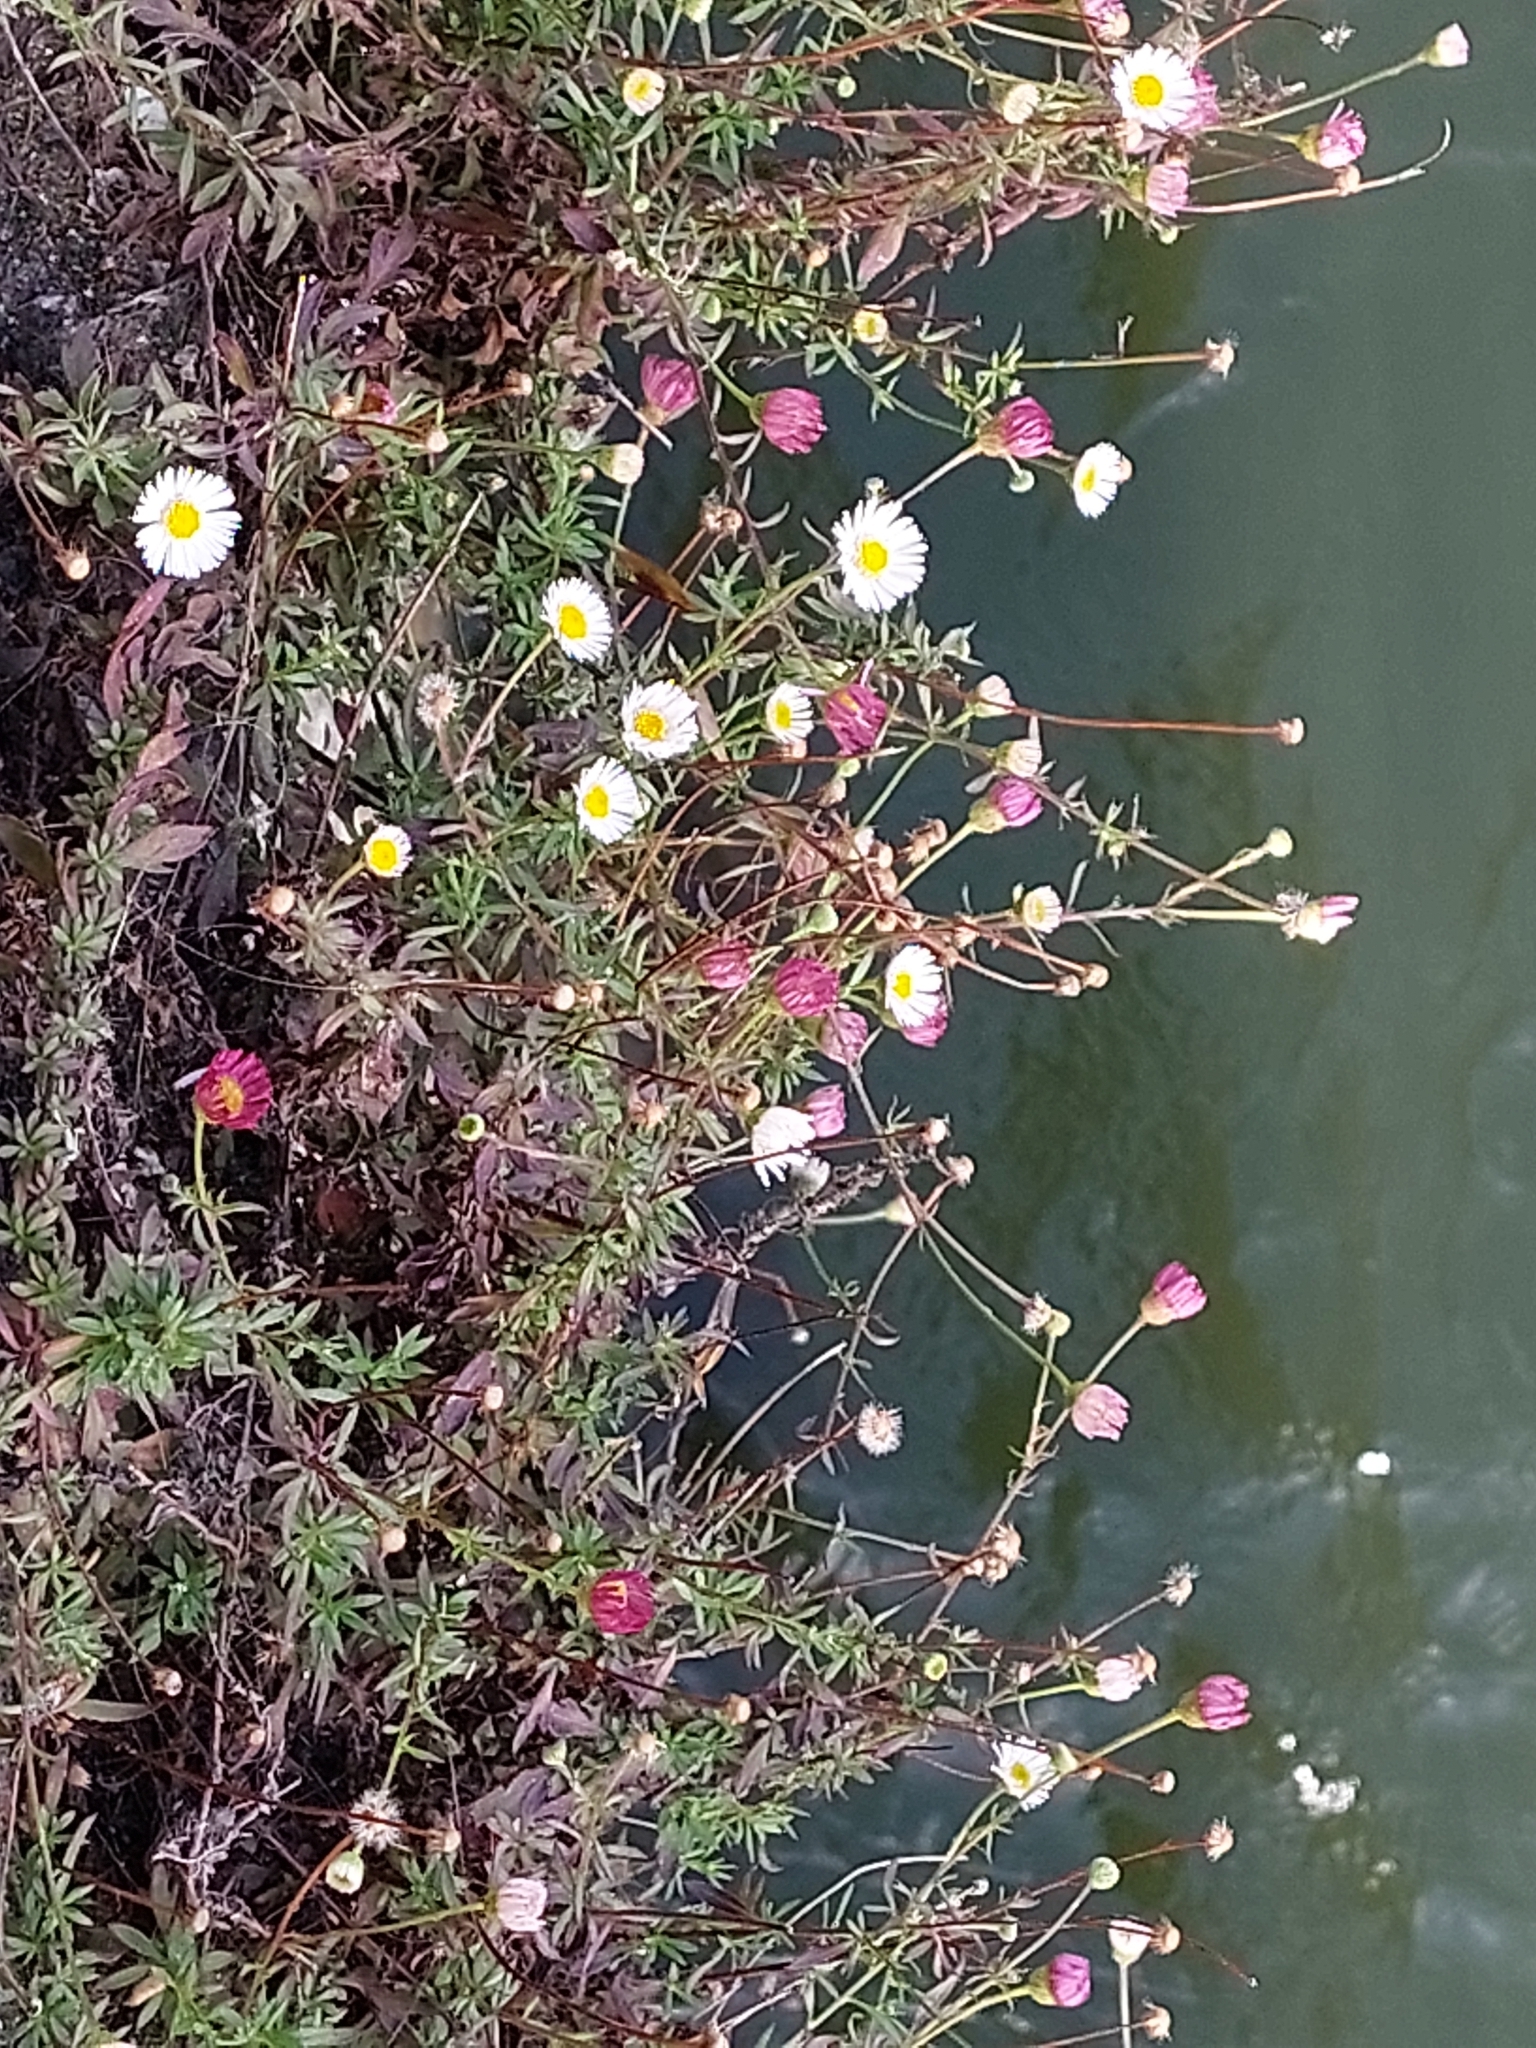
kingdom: Plantae
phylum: Tracheophyta
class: Magnoliopsida
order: Asterales
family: Asteraceae
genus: Erigeron
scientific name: Erigeron karvinskianus
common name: Mexican fleabane
